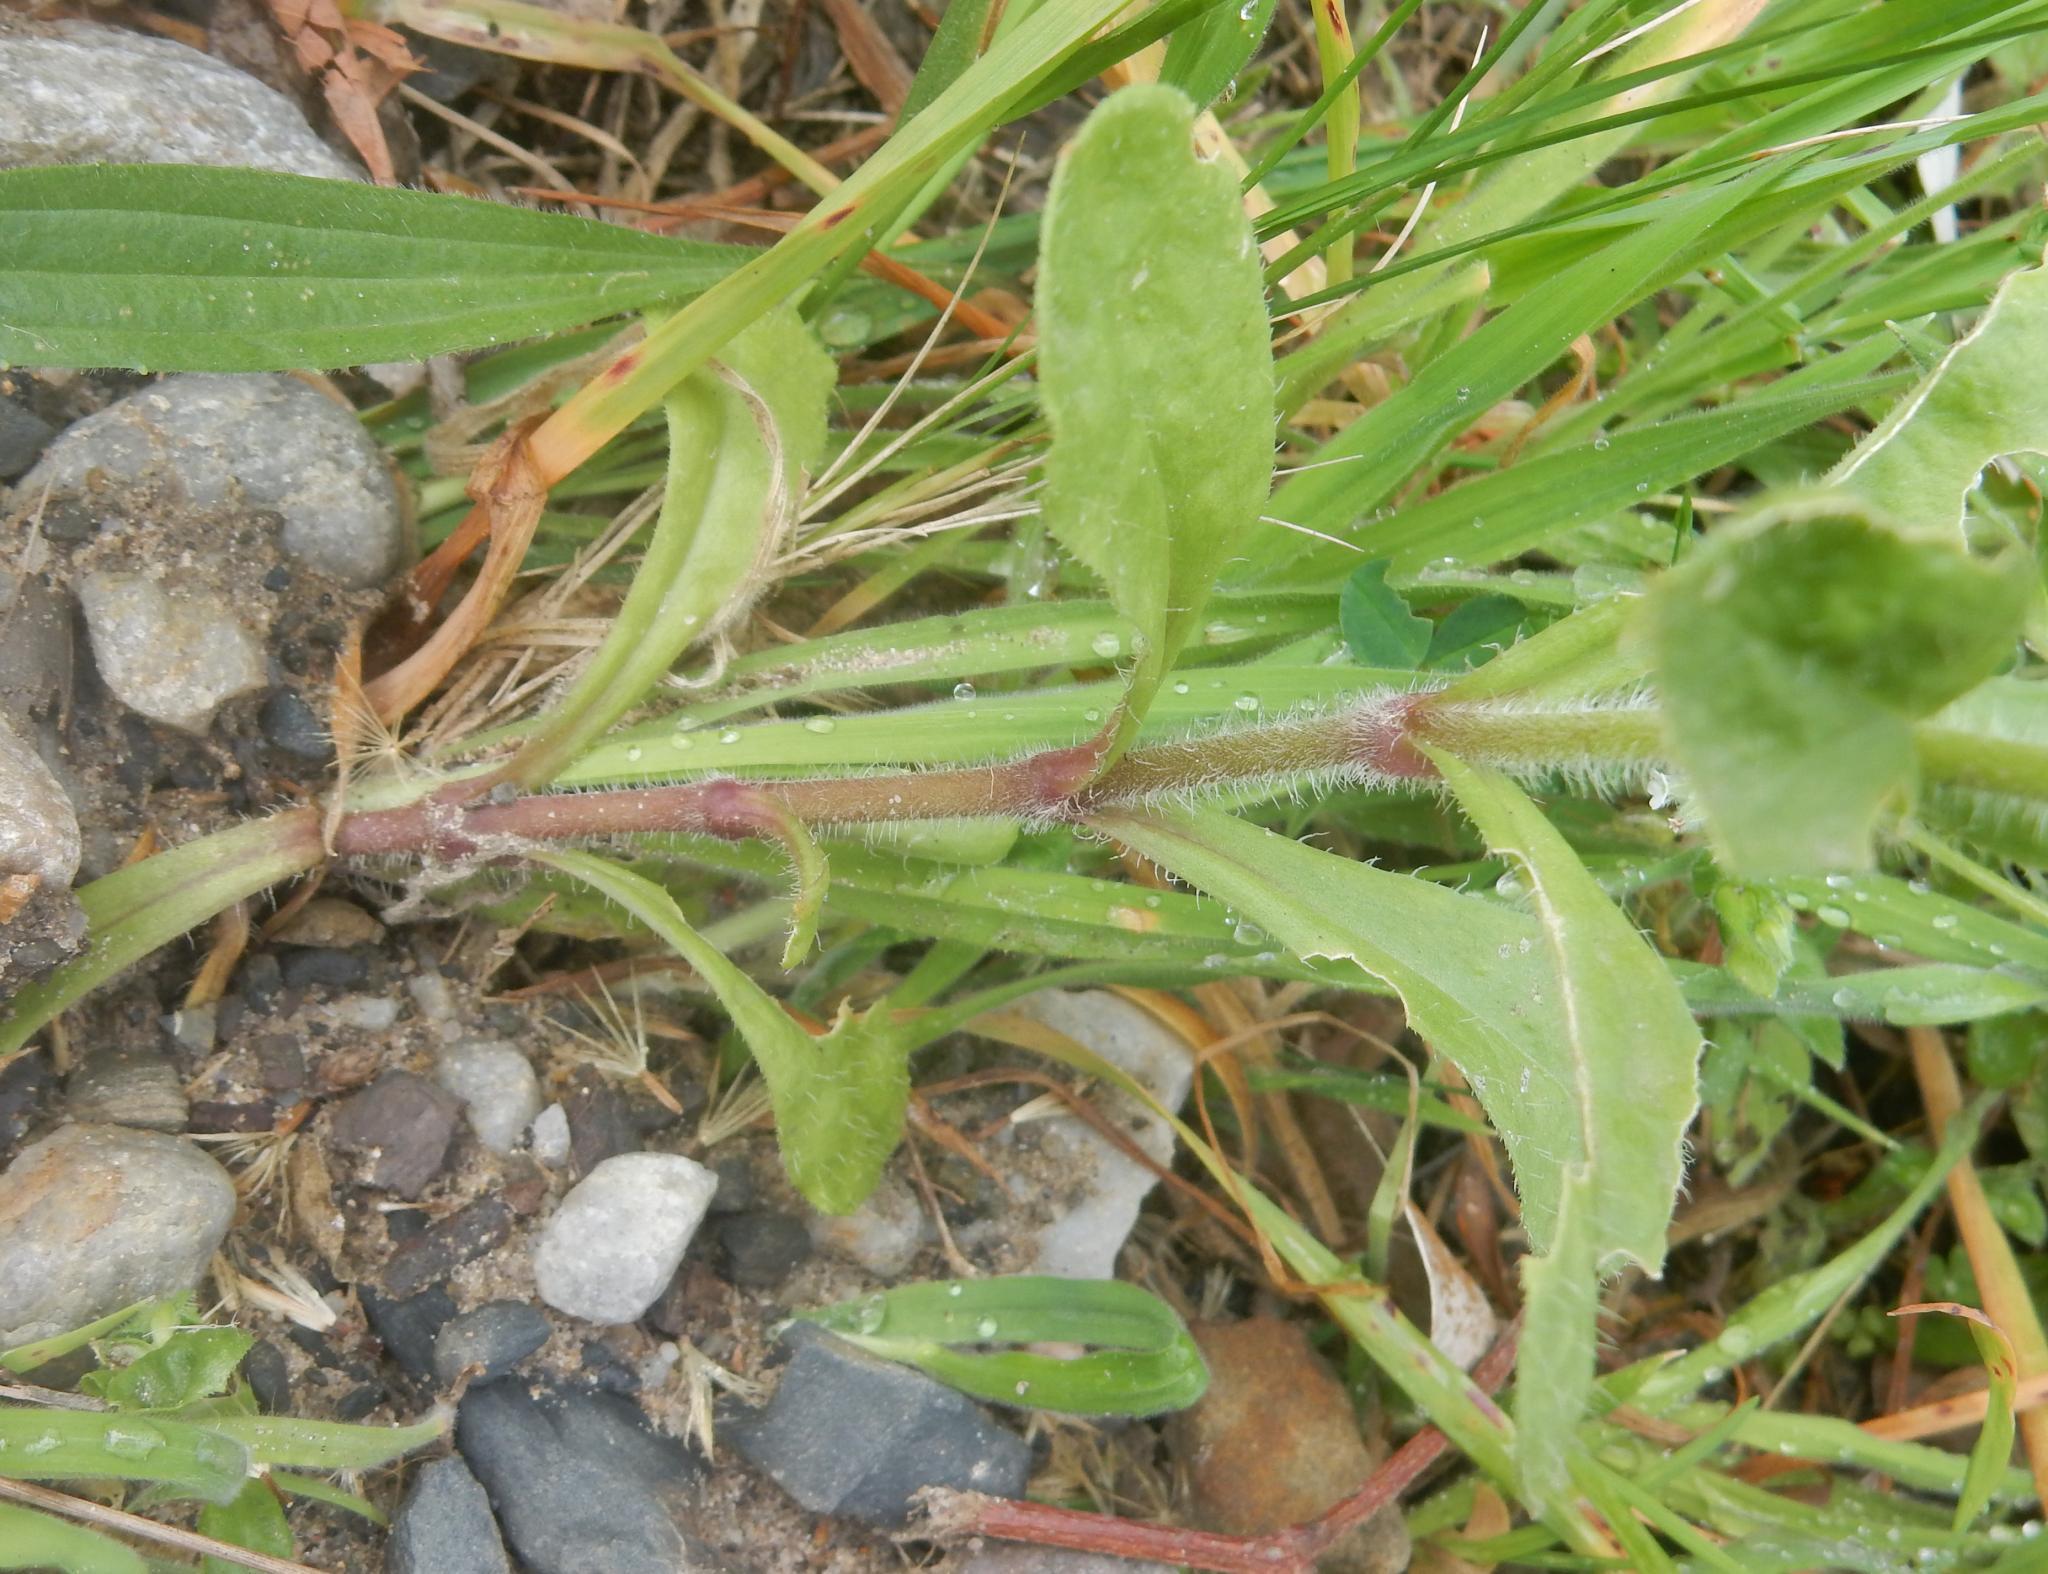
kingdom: Plantae
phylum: Tracheophyta
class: Magnoliopsida
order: Caryophyllales
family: Caryophyllaceae
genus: Silene
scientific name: Silene gallica
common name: Small-flowered catchfly
